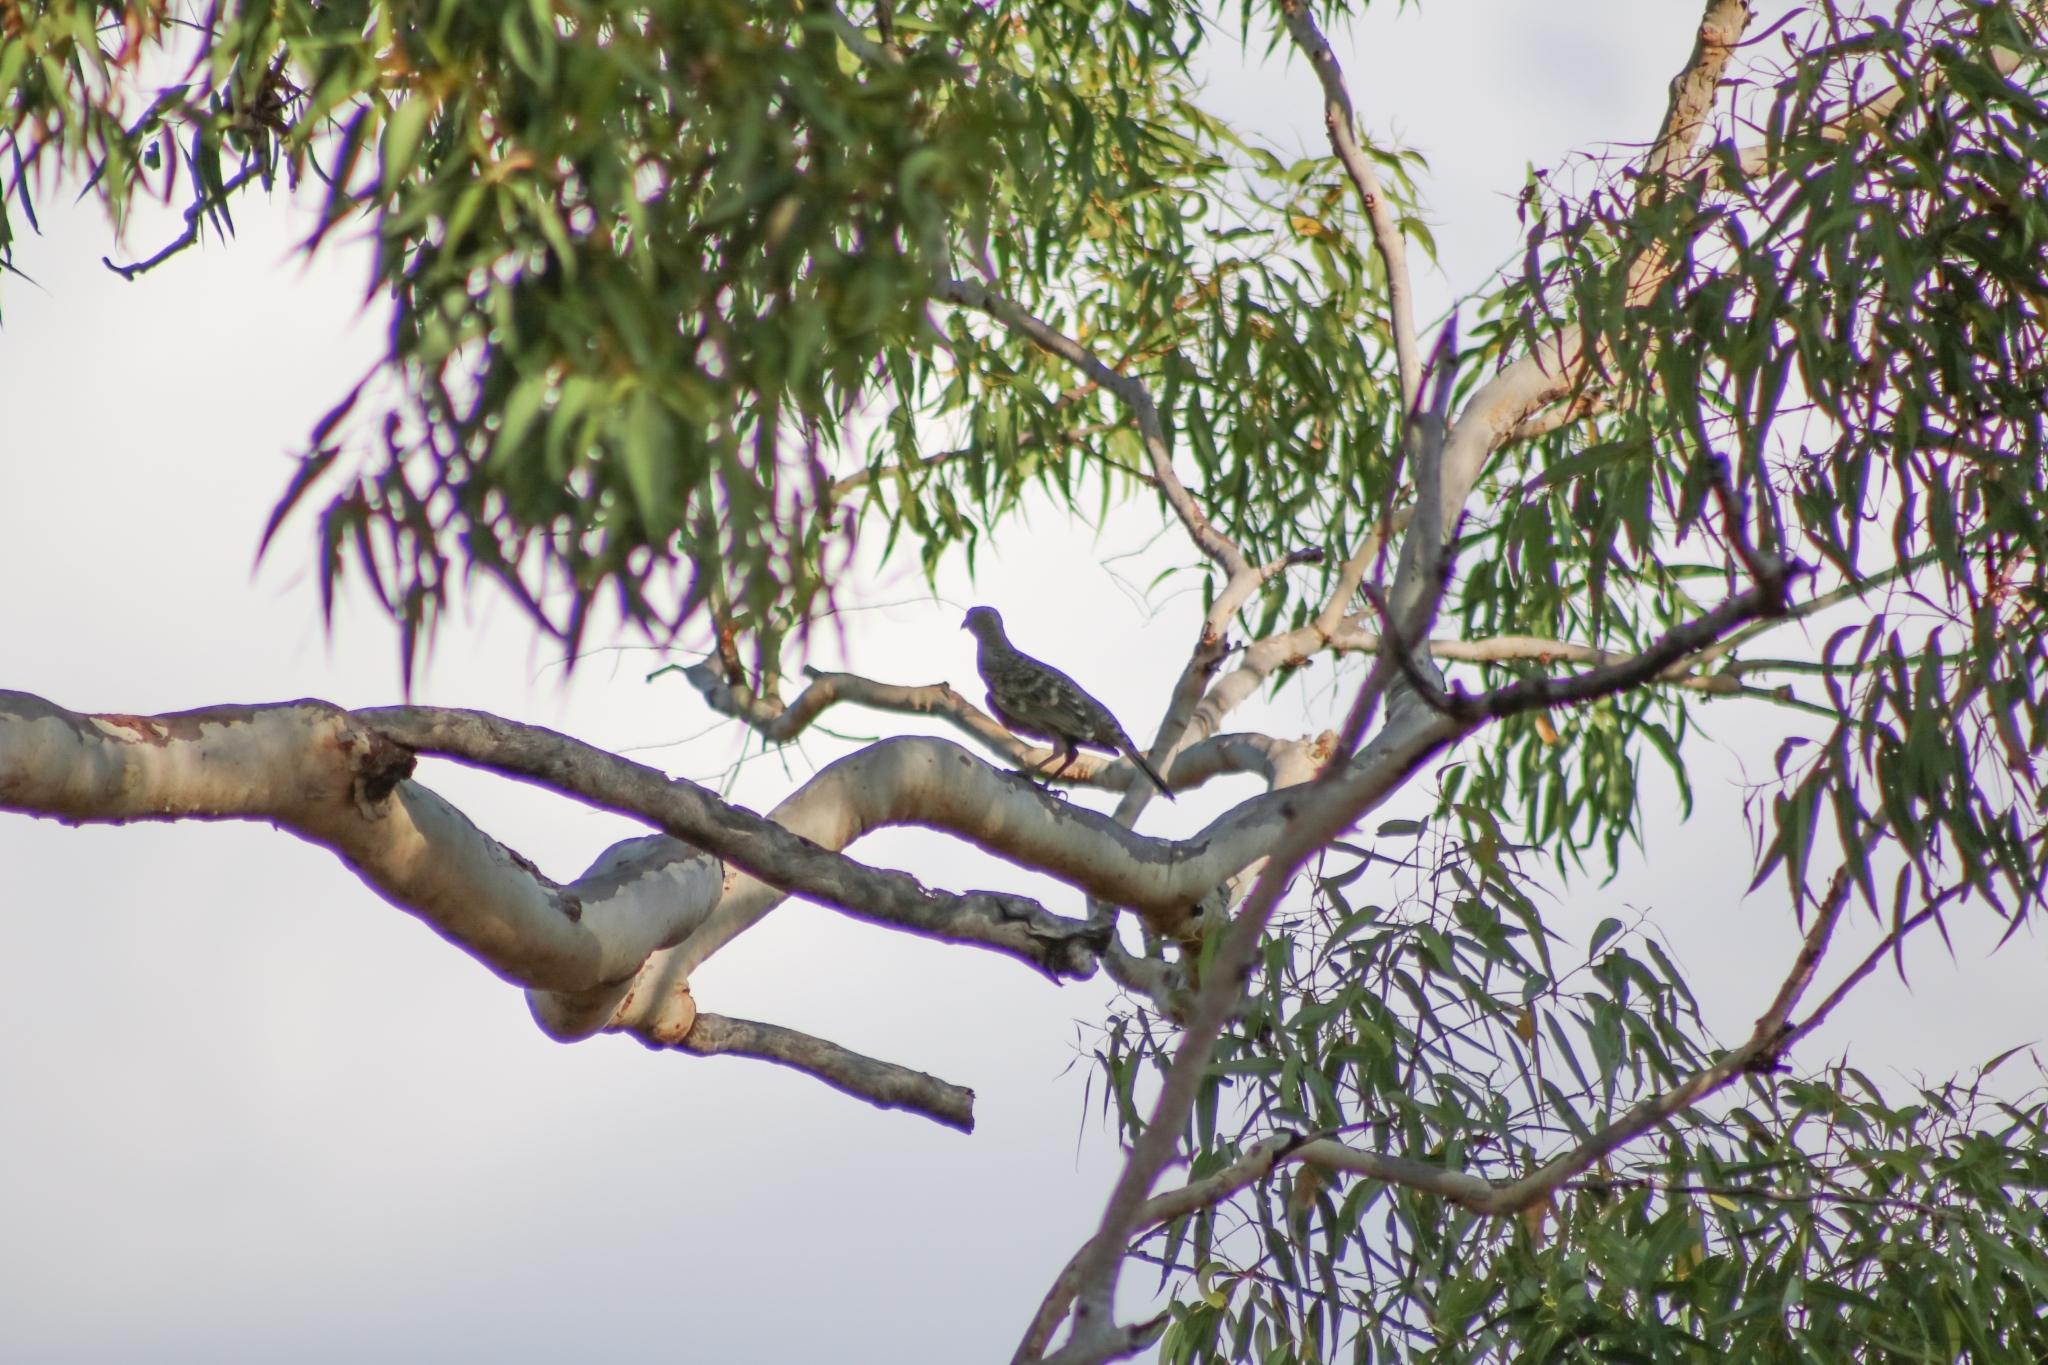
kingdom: Animalia
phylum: Chordata
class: Aves
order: Passeriformes
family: Ptilonorhynchidae
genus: Chlamydera
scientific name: Chlamydera nuchalis
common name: Great bowerbird
